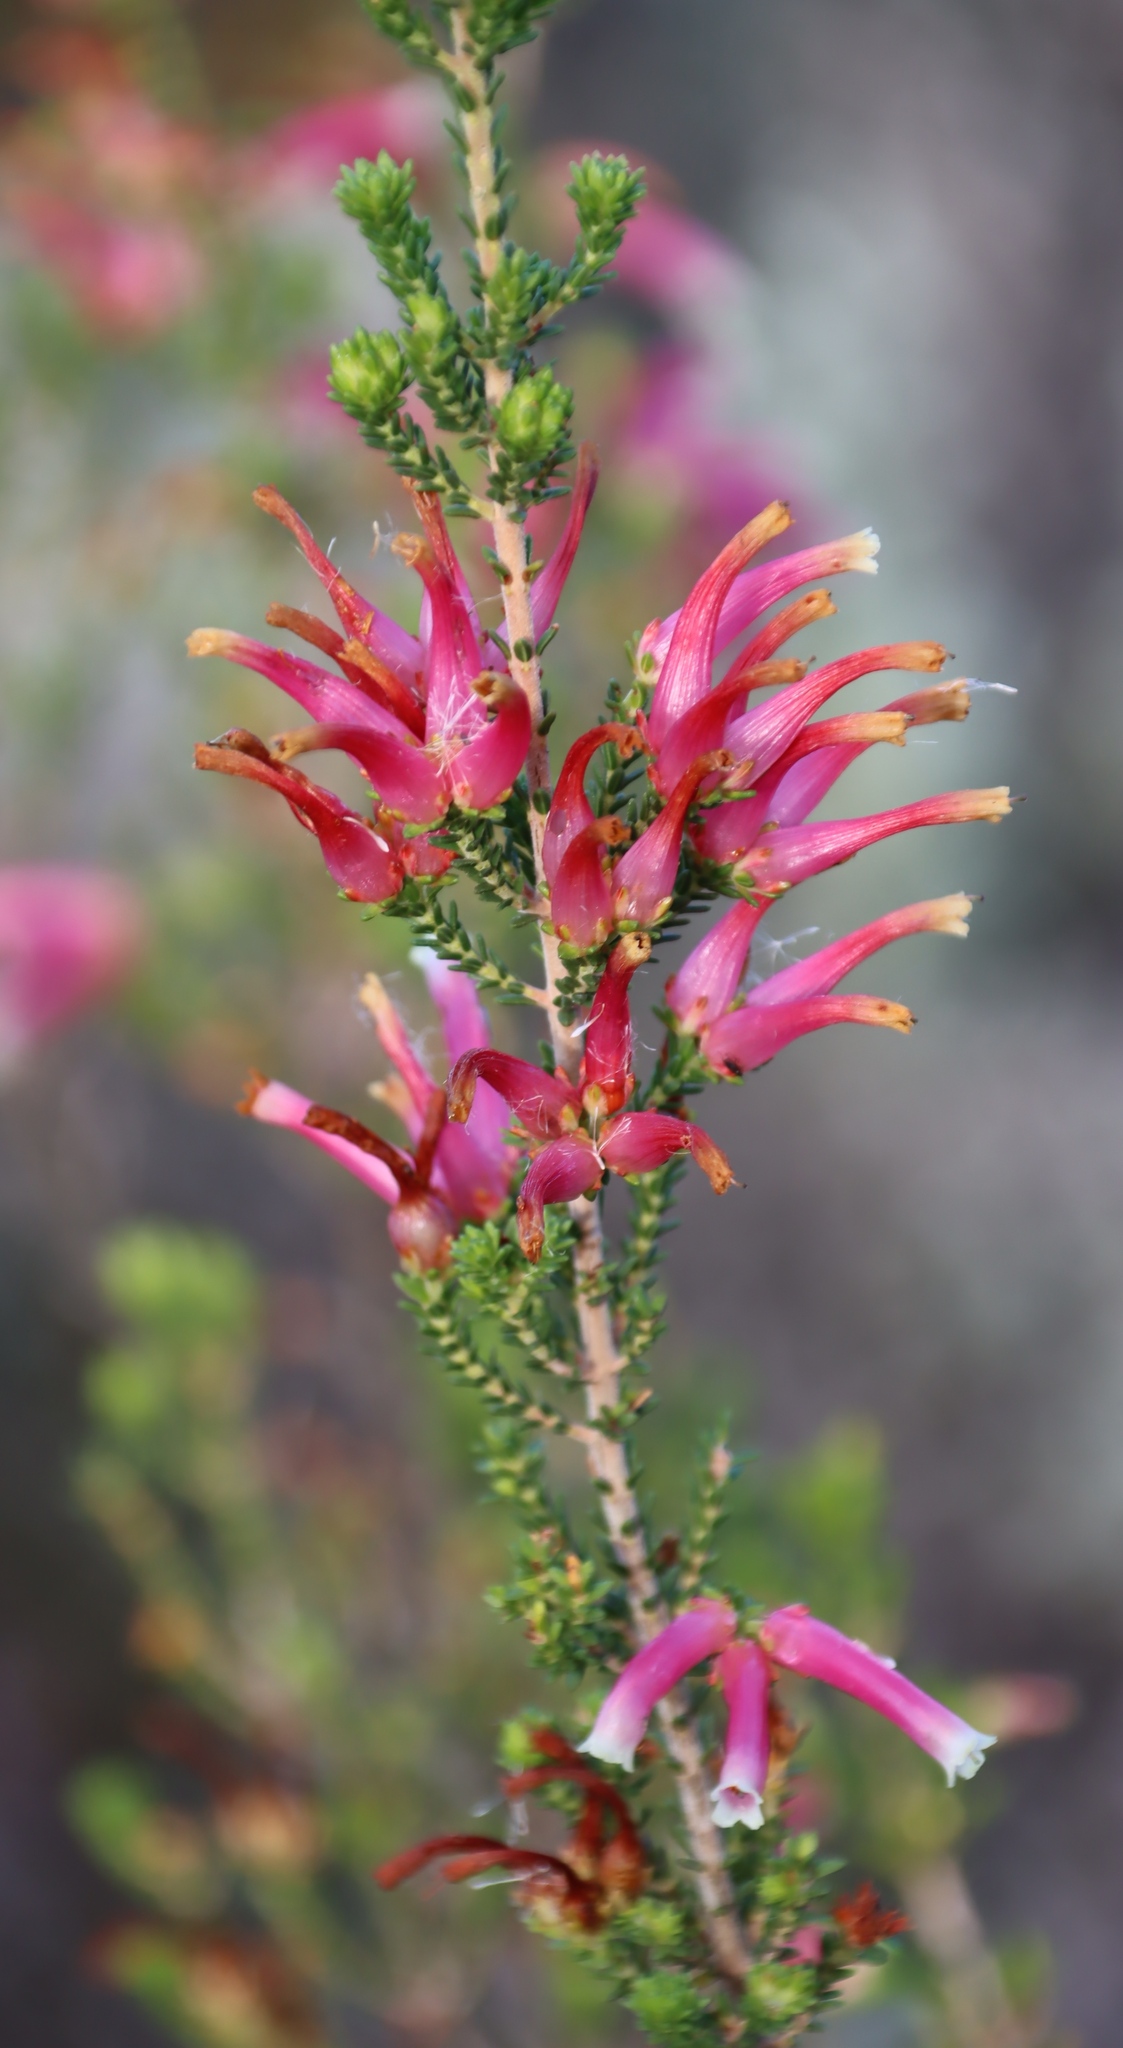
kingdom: Plantae
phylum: Tracheophyta
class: Magnoliopsida
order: Ericales
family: Ericaceae
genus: Erica
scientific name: Erica versicolor
